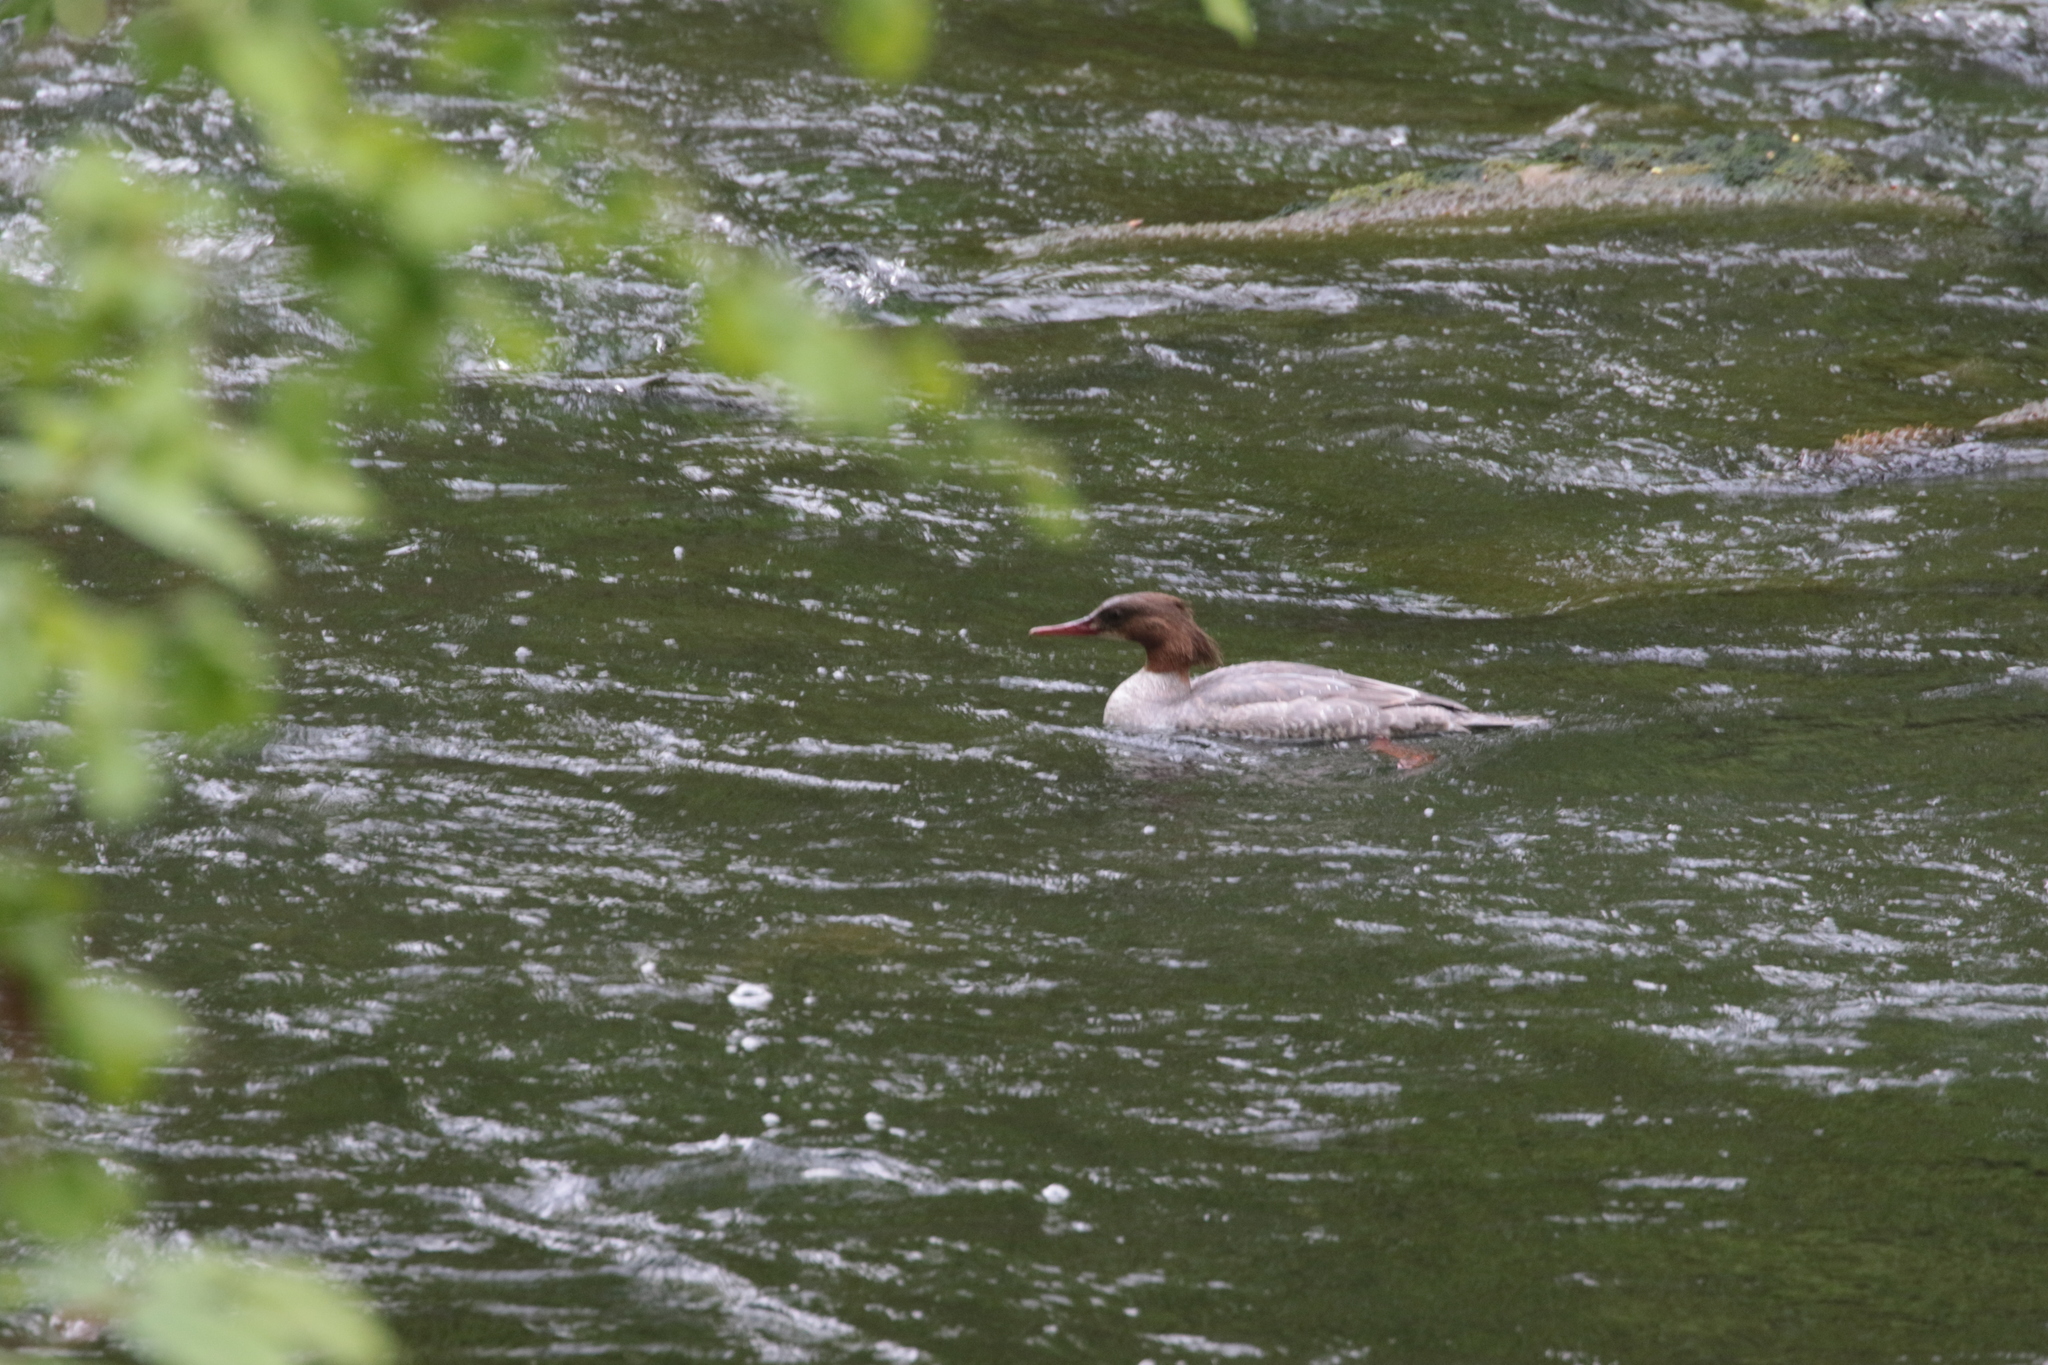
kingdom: Animalia
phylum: Chordata
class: Aves
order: Anseriformes
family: Anatidae
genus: Mergus
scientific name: Mergus merganser
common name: Common merganser
